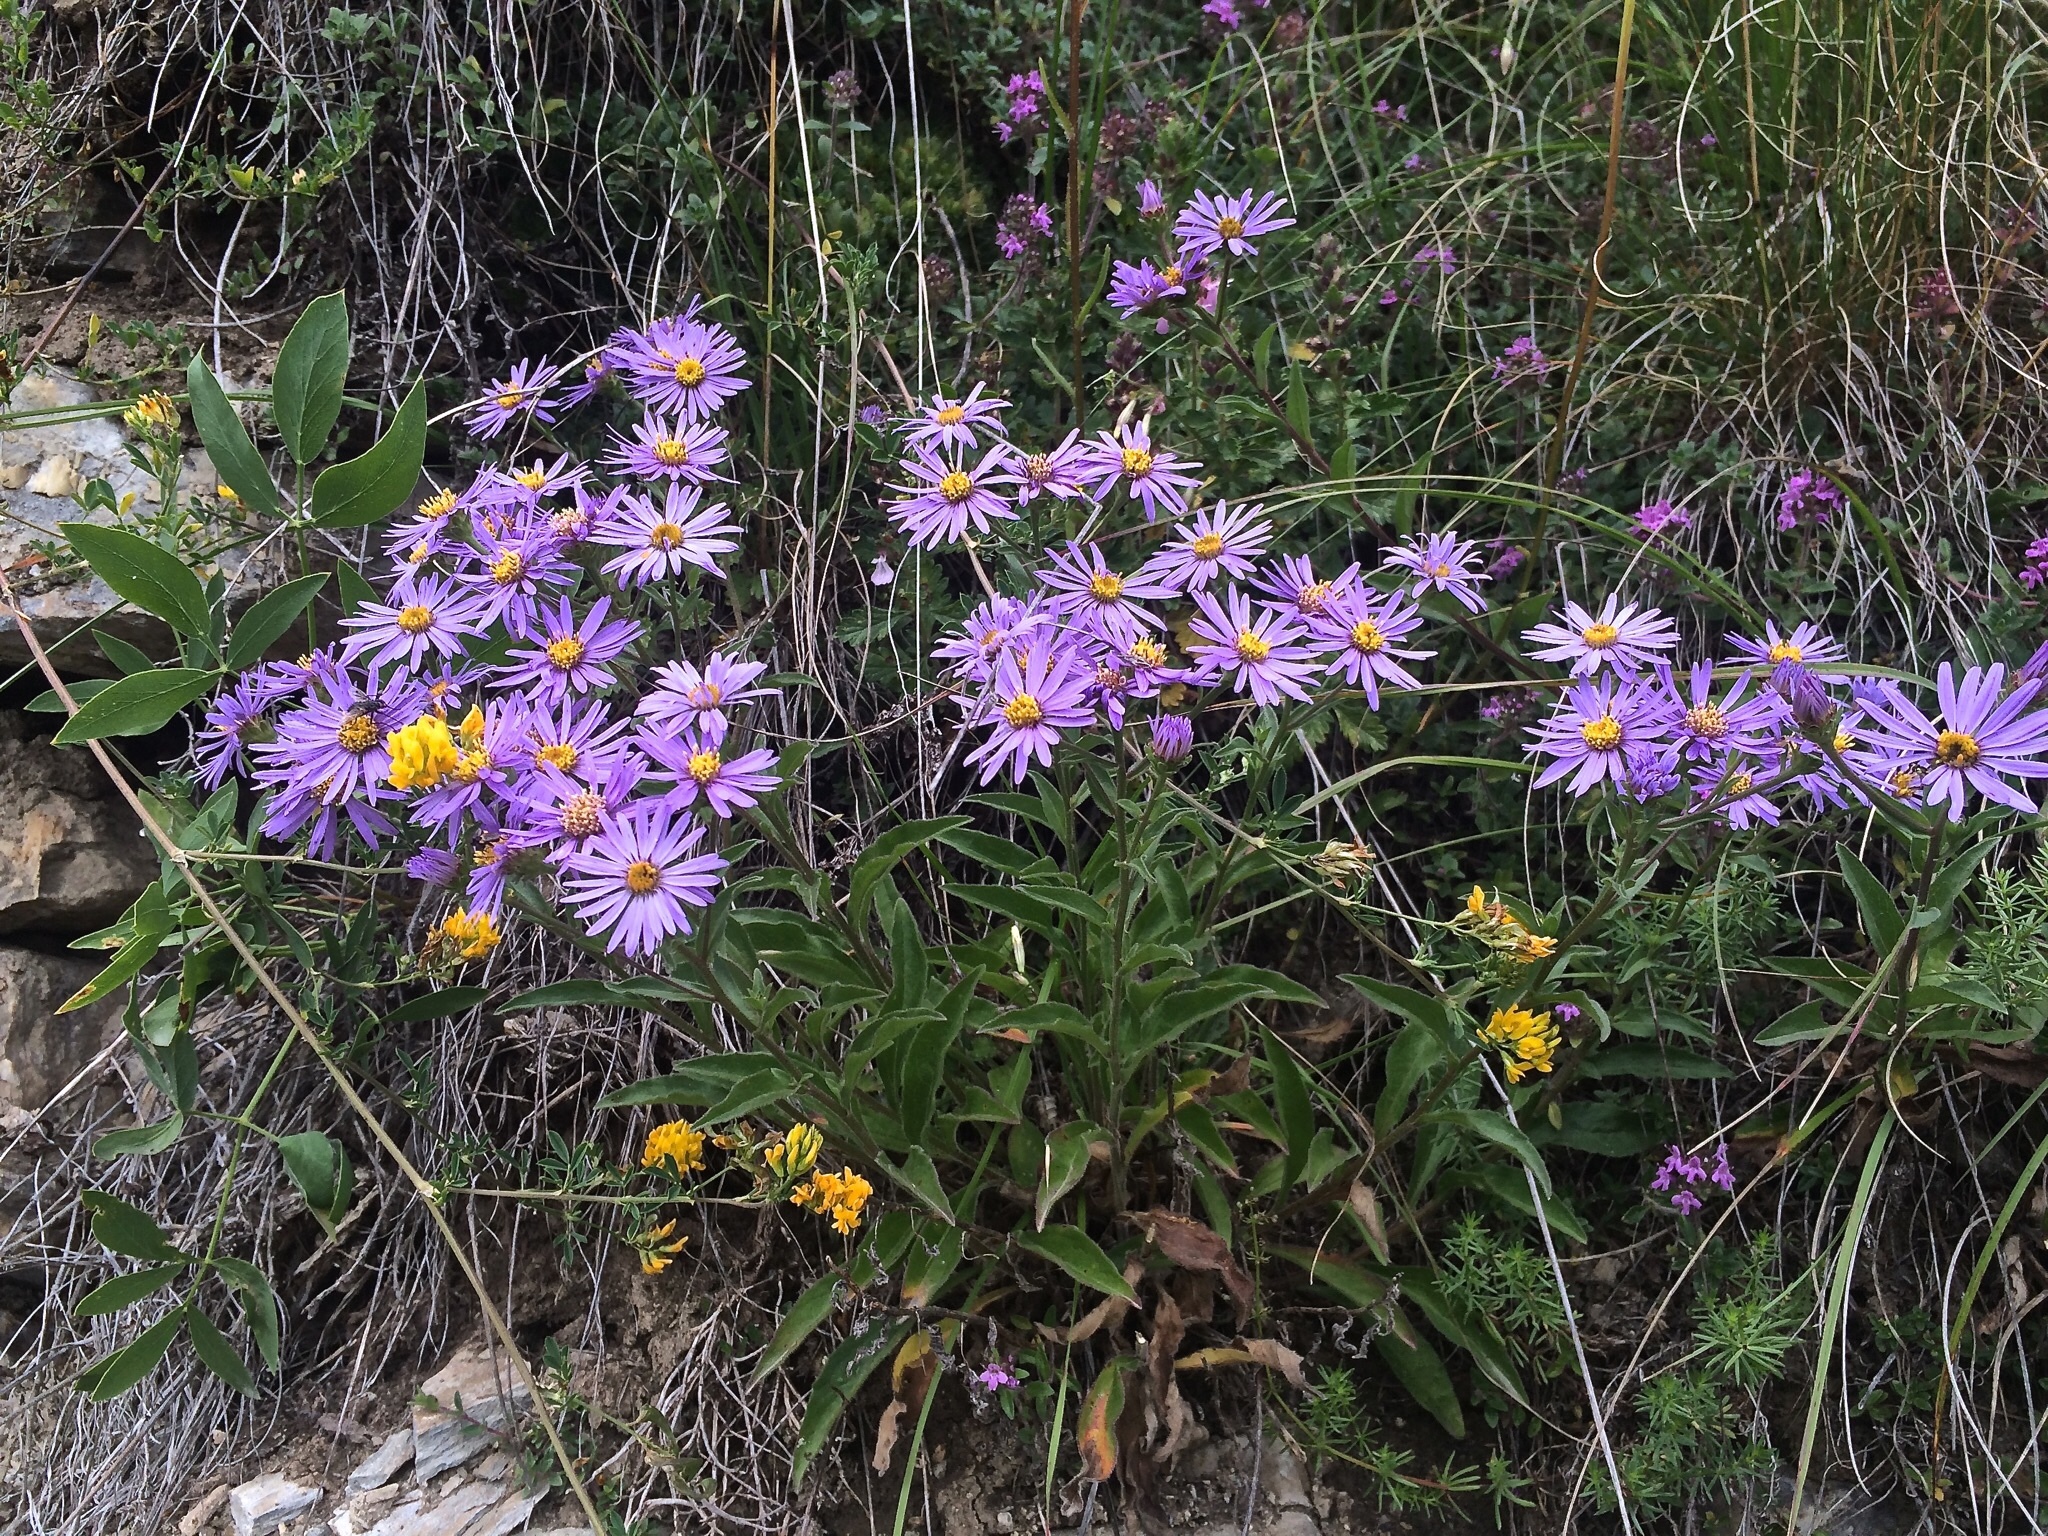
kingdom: Plantae
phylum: Tracheophyta
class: Magnoliopsida
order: Asterales
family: Asteraceae
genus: Aster
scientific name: Aster amellus
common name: European michaelmas daisy
